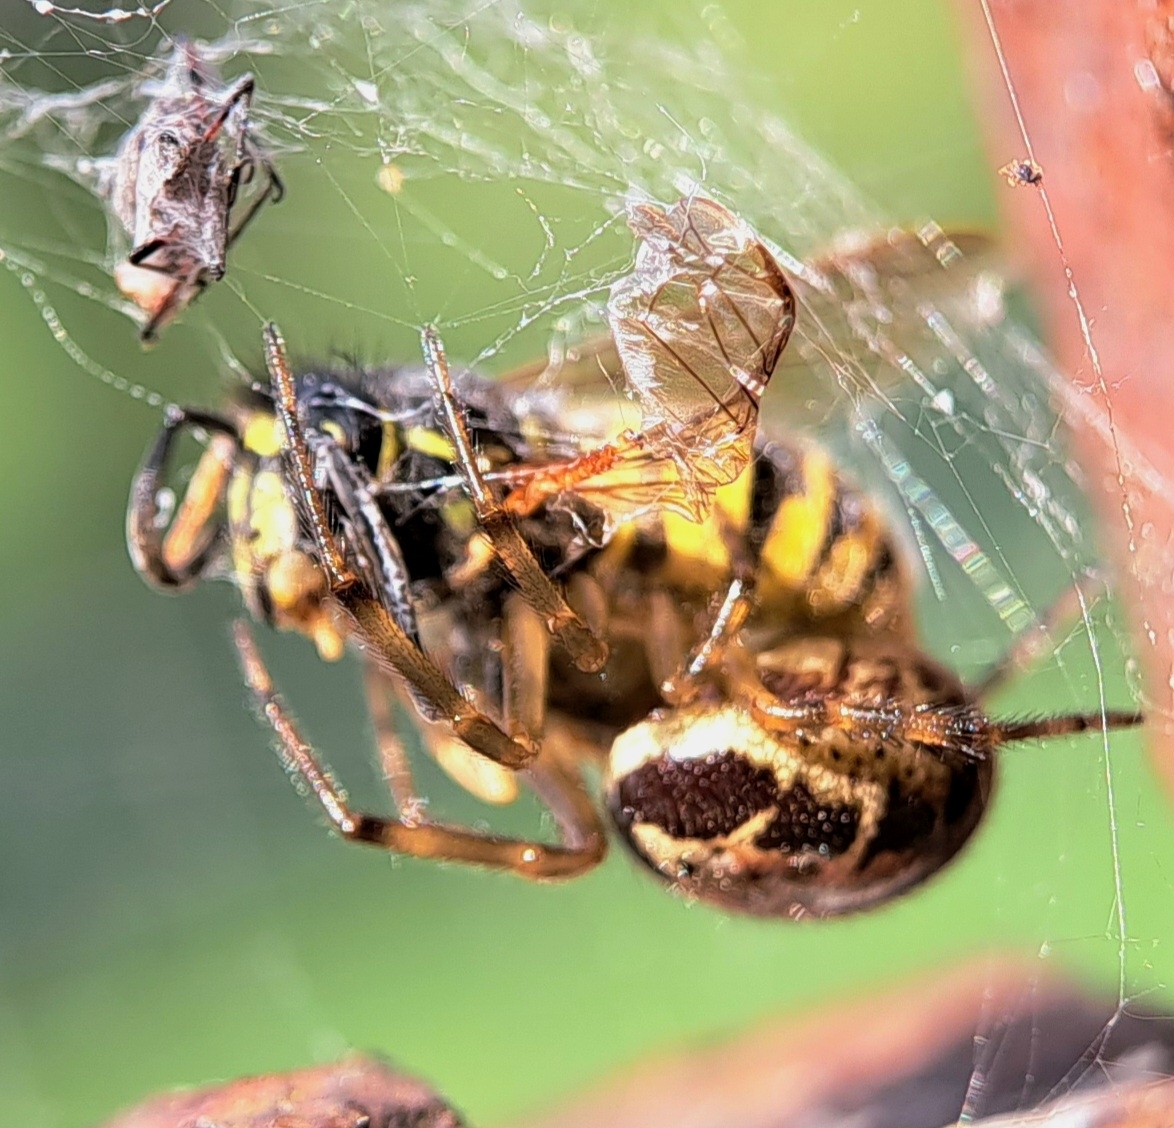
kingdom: Animalia
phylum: Arthropoda
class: Arachnida
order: Araneae
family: Theridiidae
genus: Steatoda
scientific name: Steatoda nobilis
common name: Cobweb weaver
